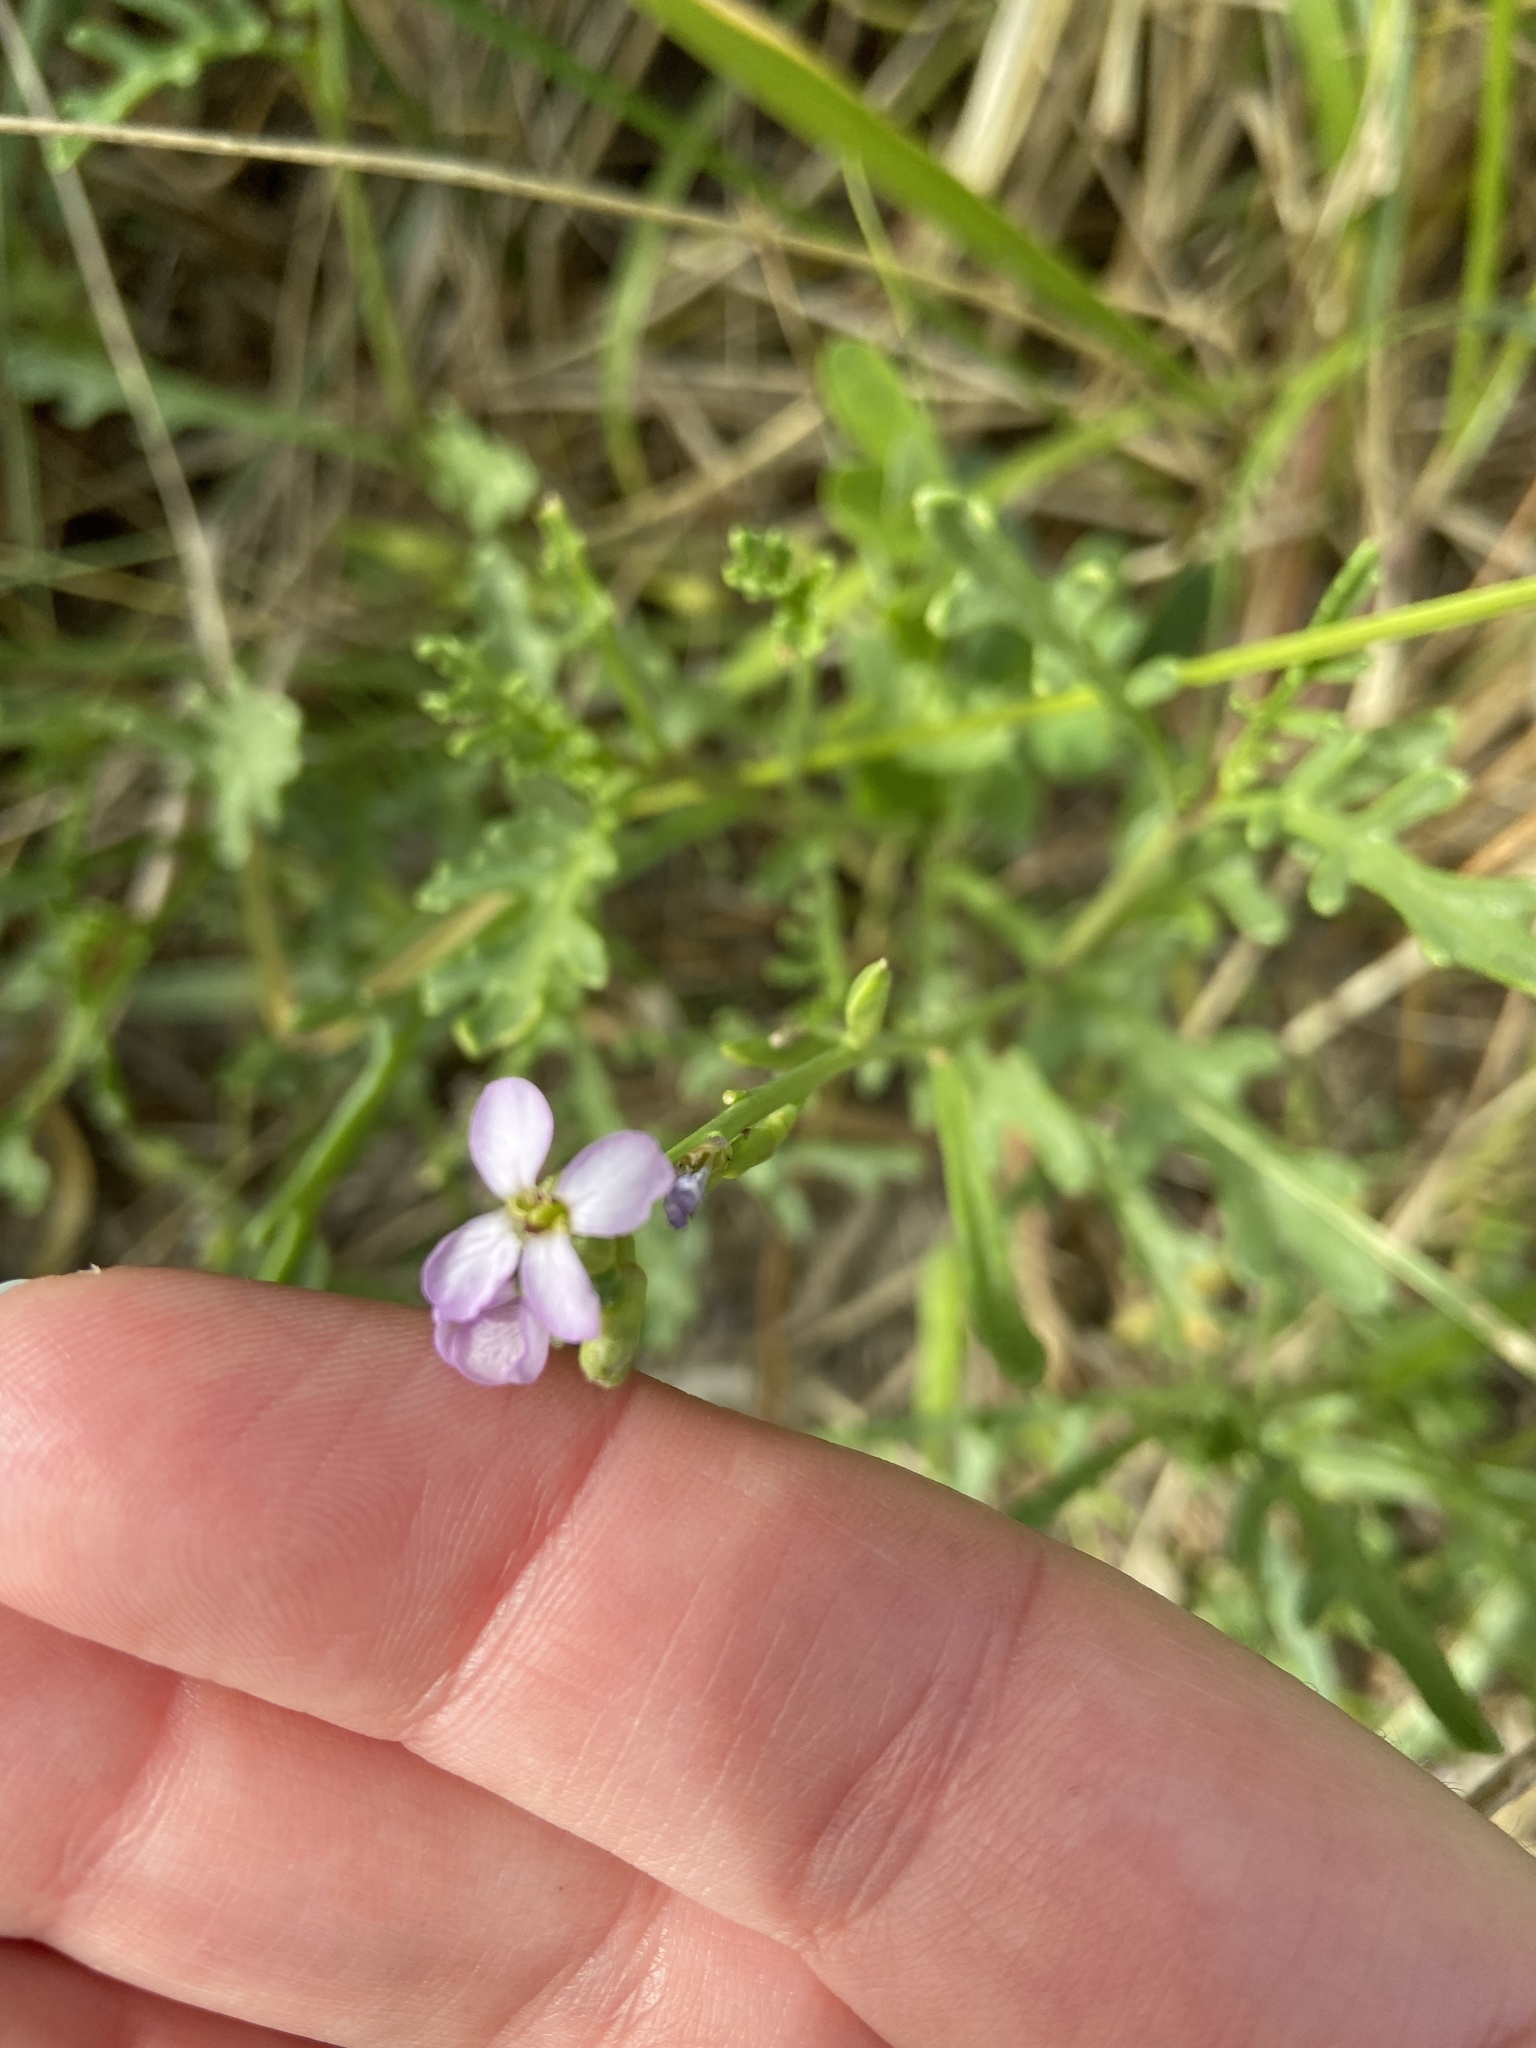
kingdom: Plantae
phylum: Tracheophyta
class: Magnoliopsida
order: Brassicales
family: Brassicaceae
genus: Cakile
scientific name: Cakile maritima
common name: Sea rocket
